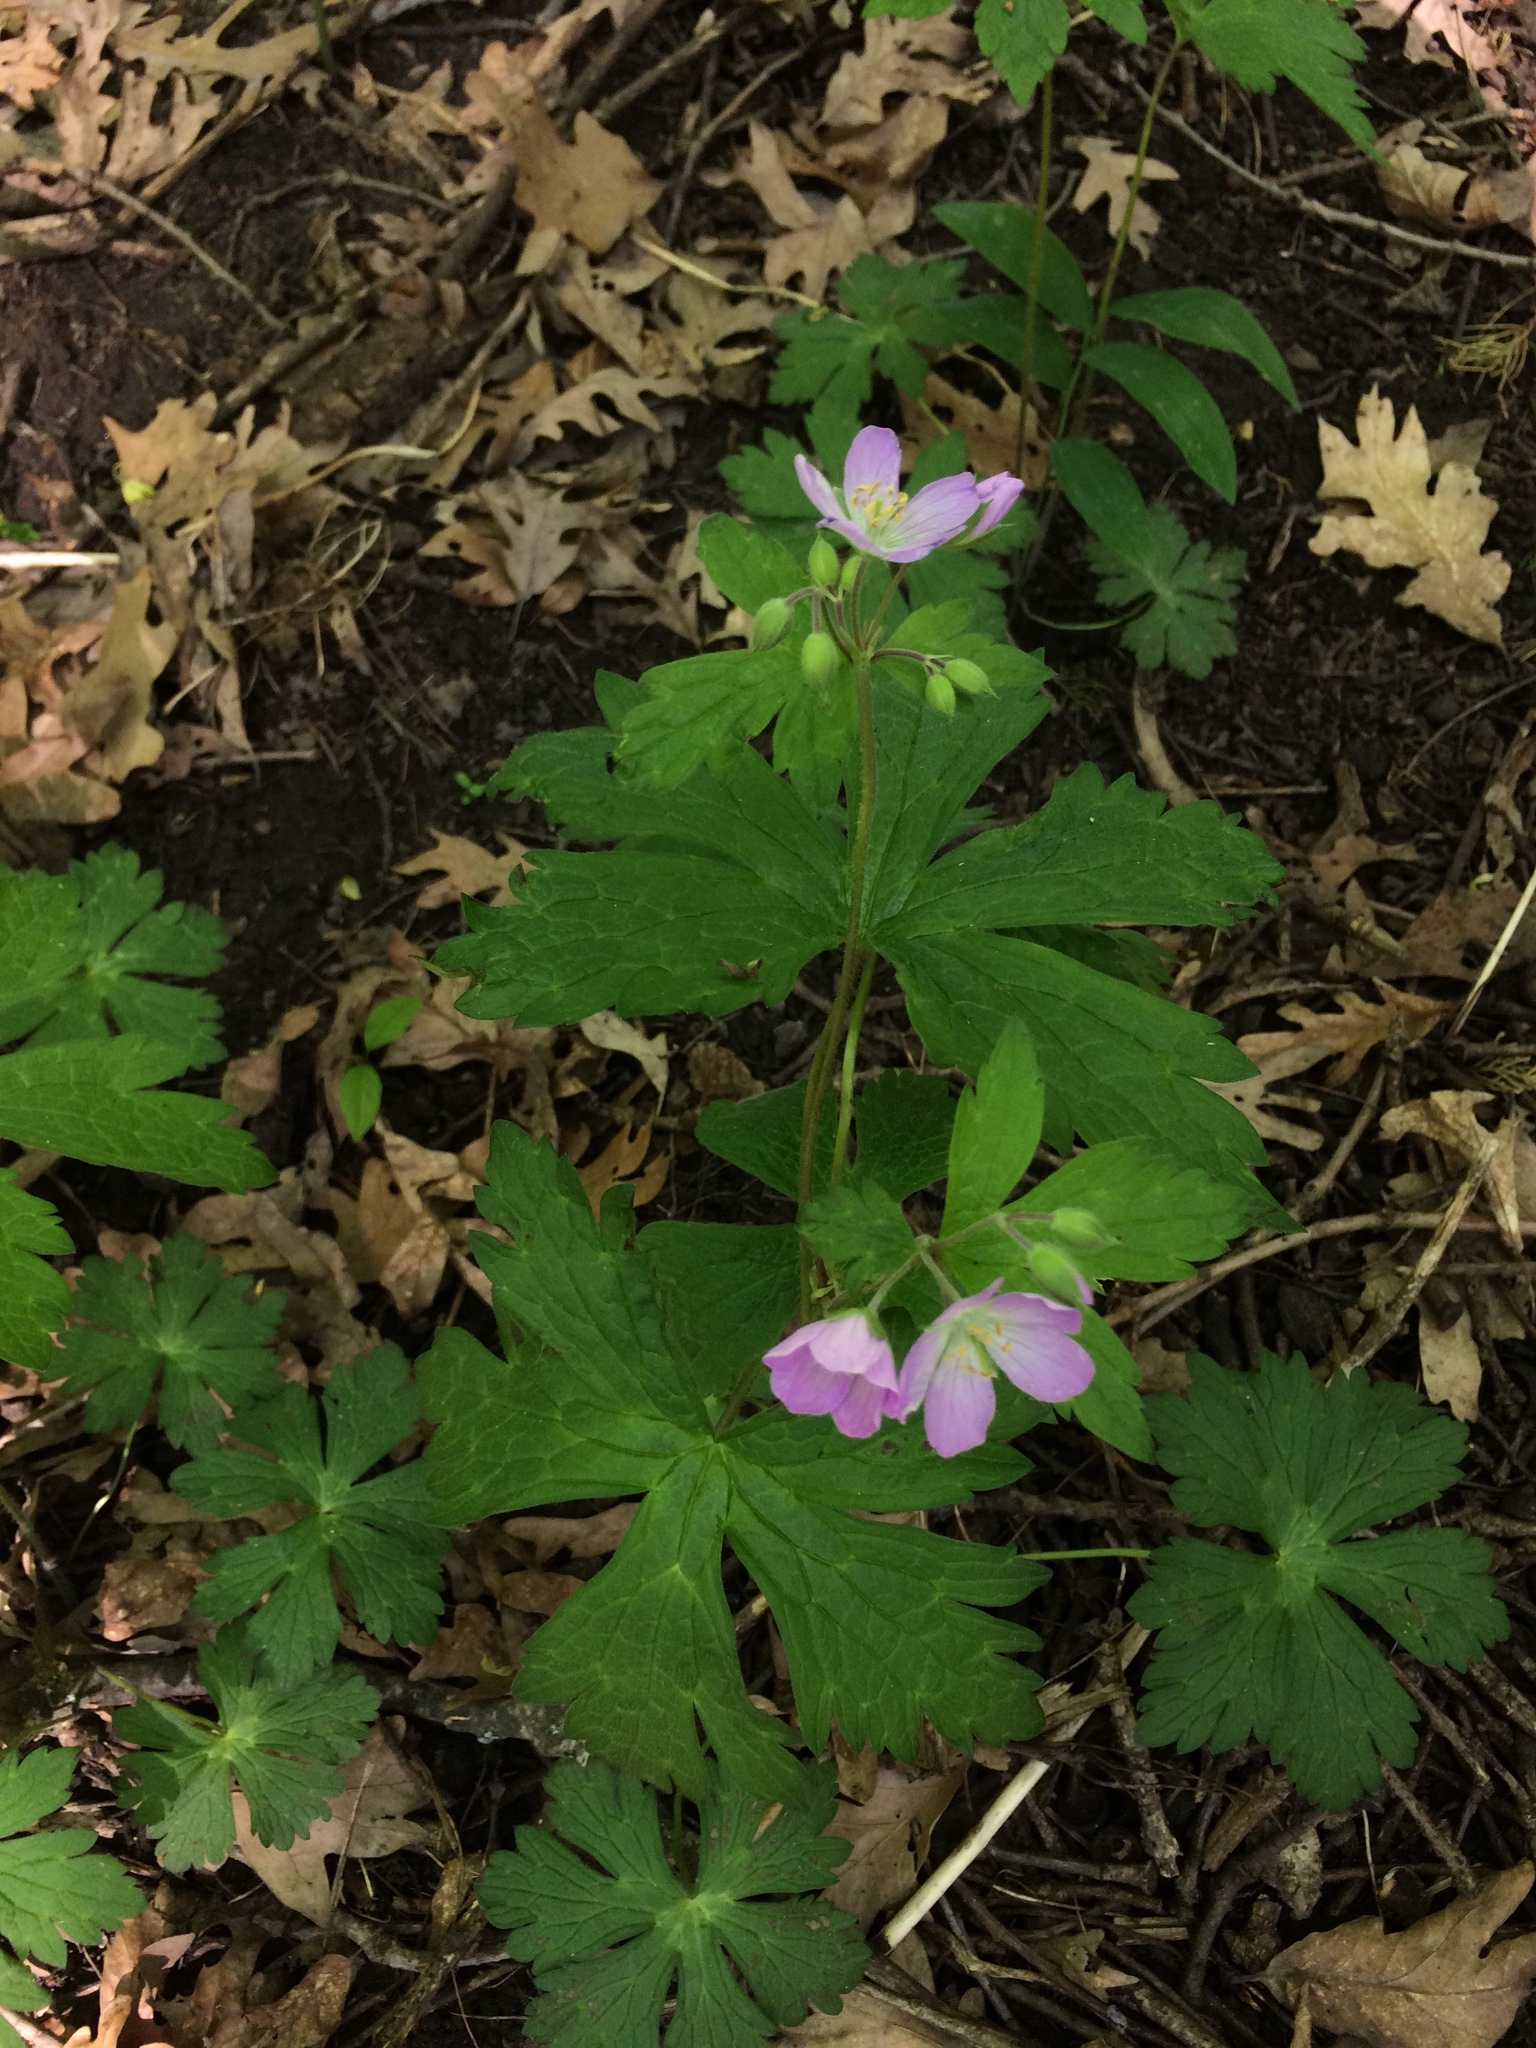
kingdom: Plantae
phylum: Tracheophyta
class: Magnoliopsida
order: Geraniales
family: Geraniaceae
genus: Geranium
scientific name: Geranium maculatum
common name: Spotted geranium
